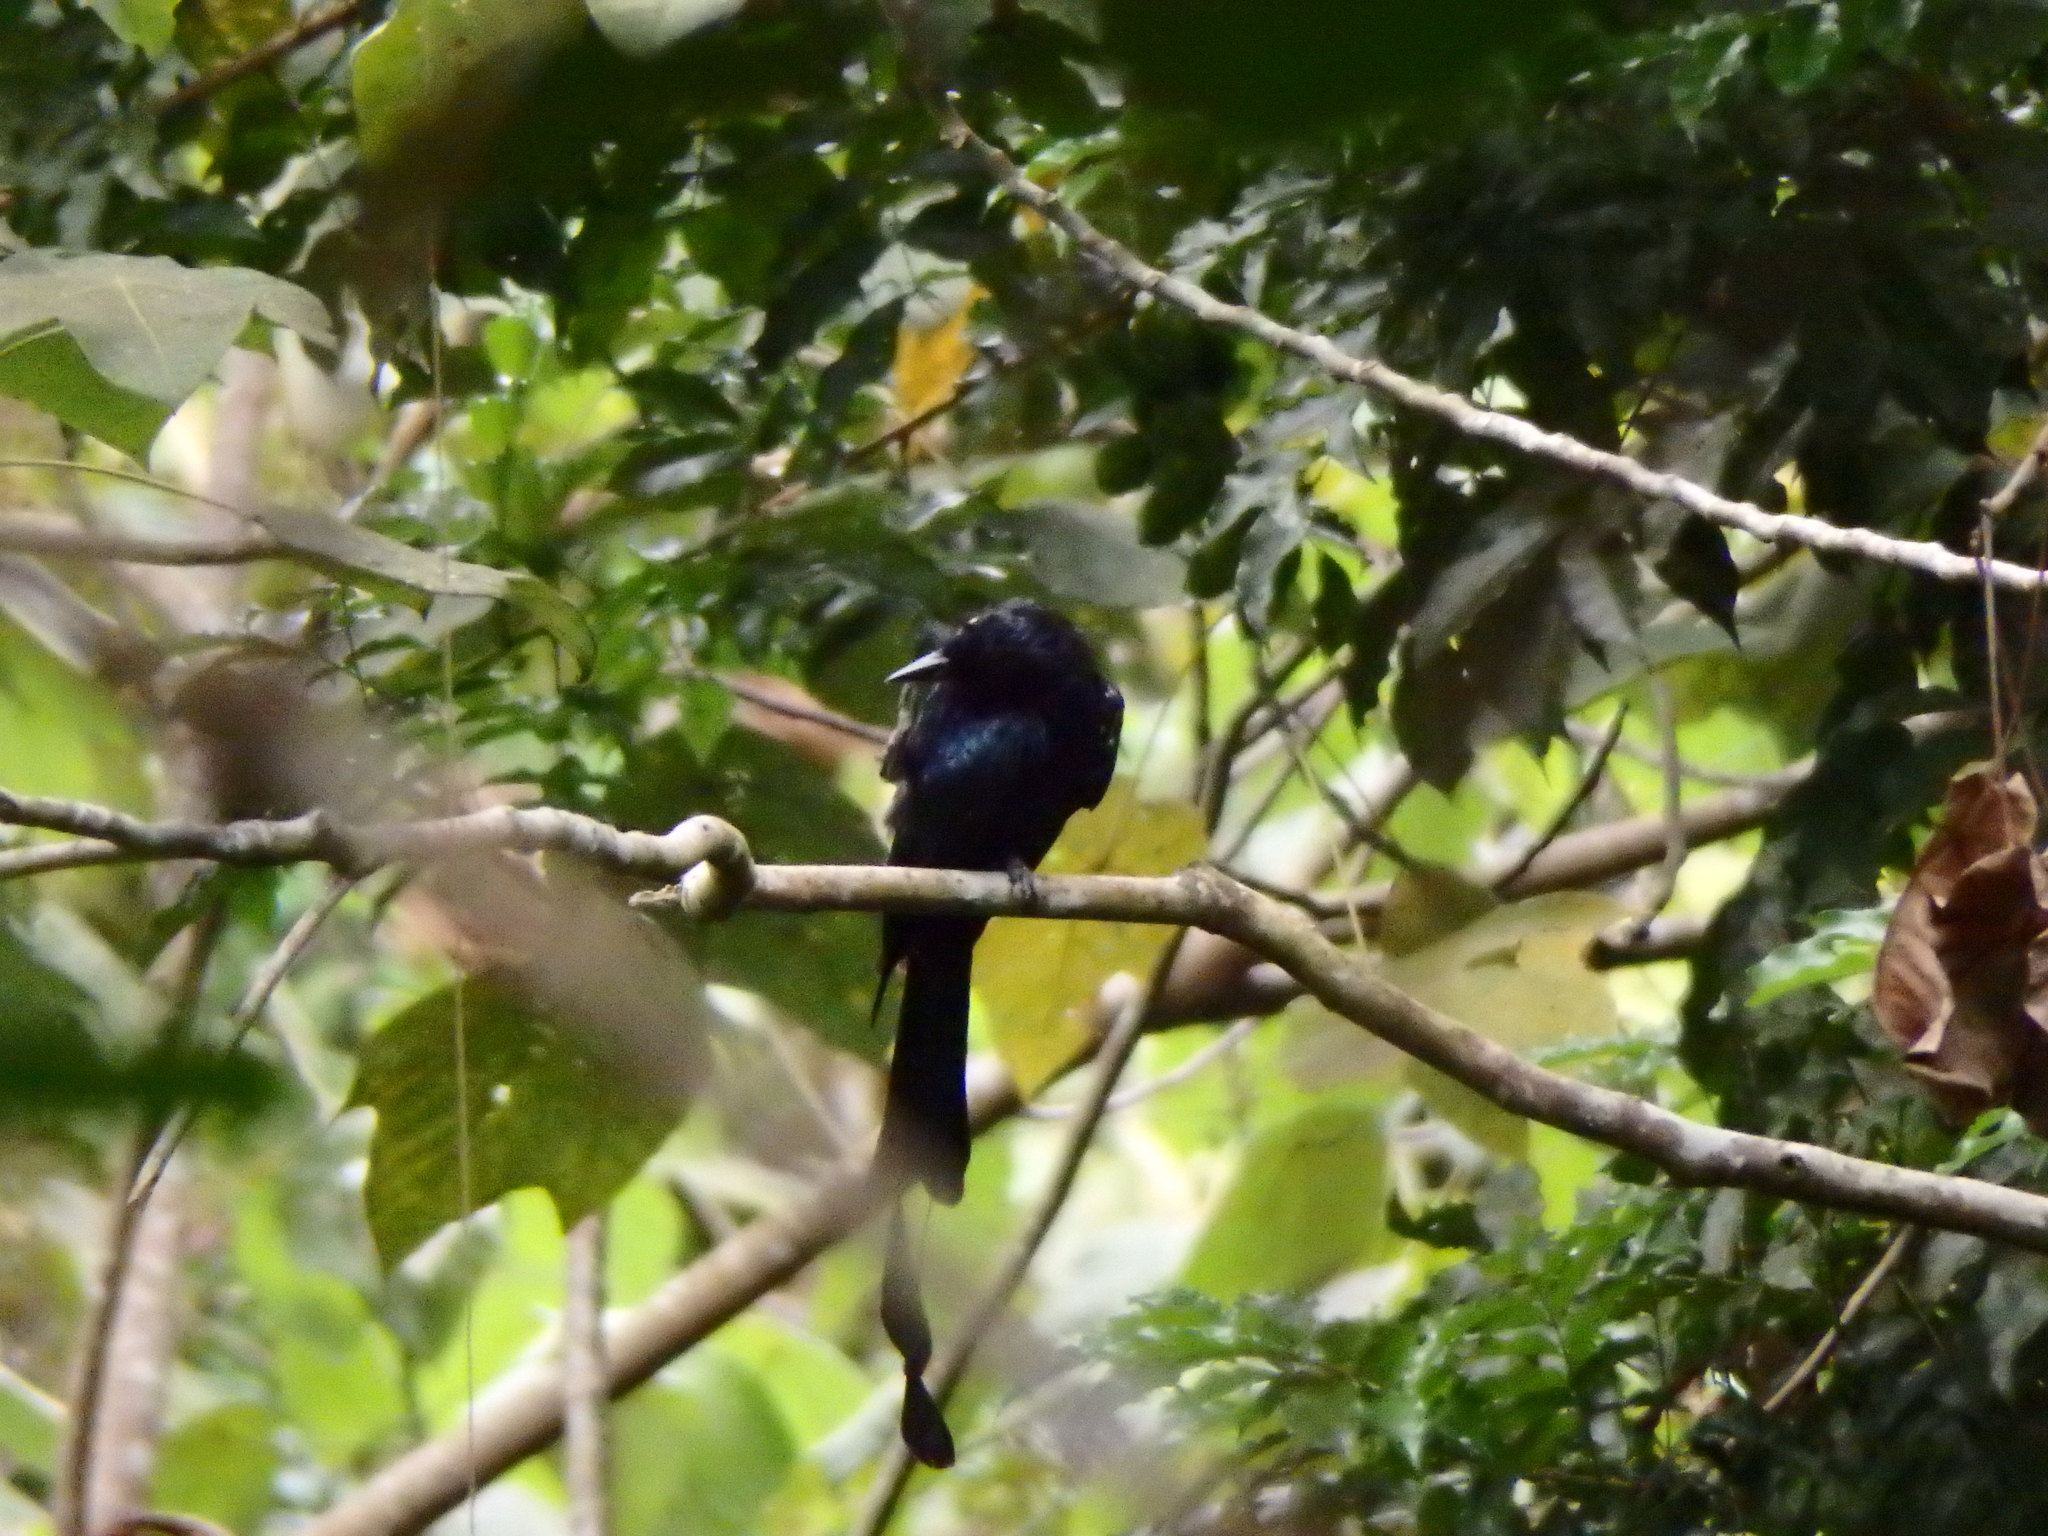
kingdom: Animalia
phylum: Chordata
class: Aves
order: Passeriformes
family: Dicruridae
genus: Dicrurus
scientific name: Dicrurus paradiseus
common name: Greater racket-tailed drongo
